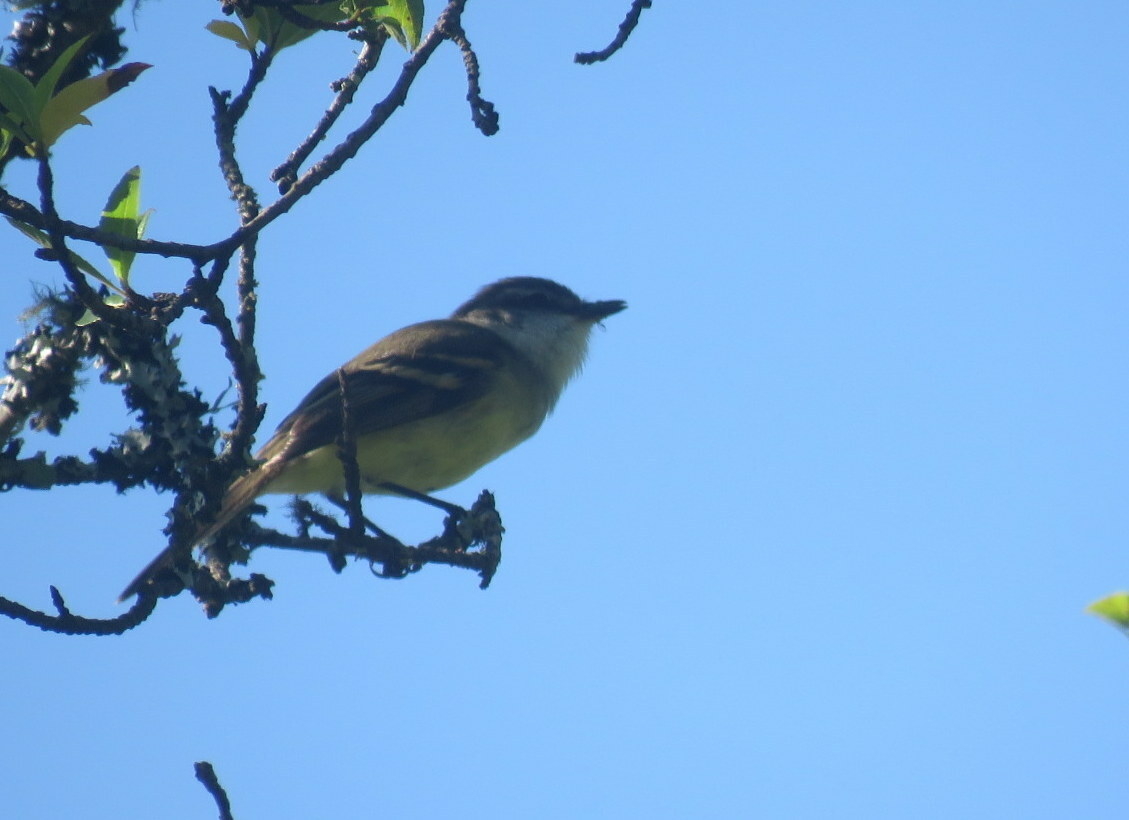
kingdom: Animalia
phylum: Chordata
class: Aves
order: Passeriformes
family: Tyrannidae
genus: Mecocerculus
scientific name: Mecocerculus leucophrys
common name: White-throated tyrannulet
